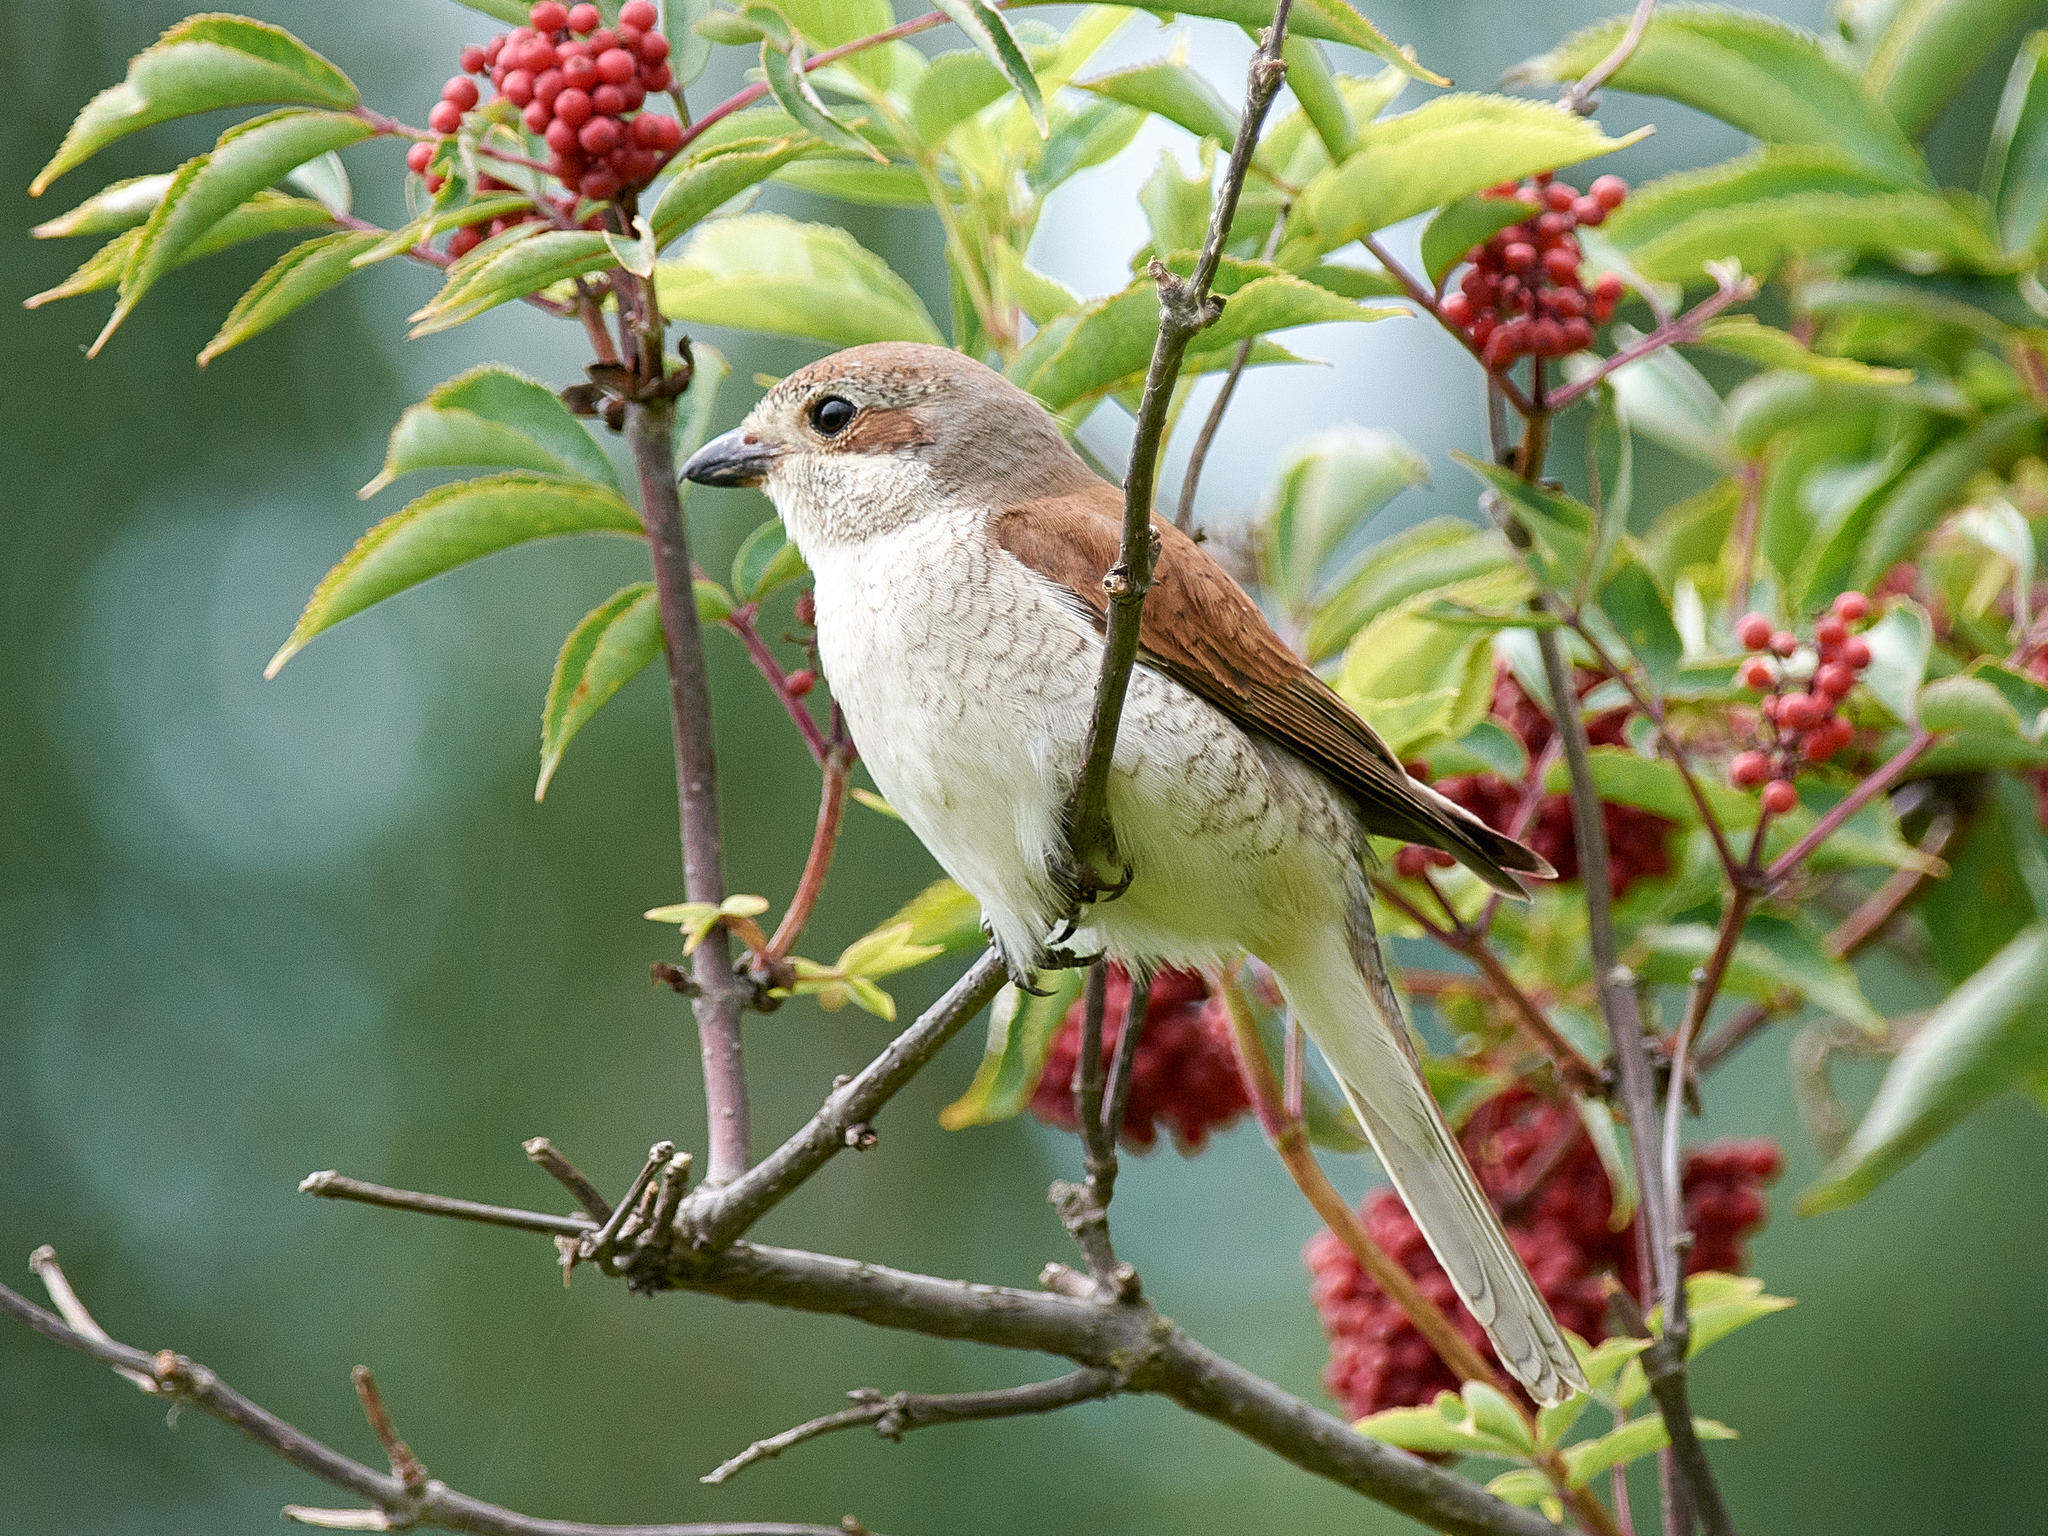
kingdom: Animalia
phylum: Chordata
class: Aves
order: Passeriformes
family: Laniidae
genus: Lanius
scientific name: Lanius collurio
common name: Red-backed shrike
